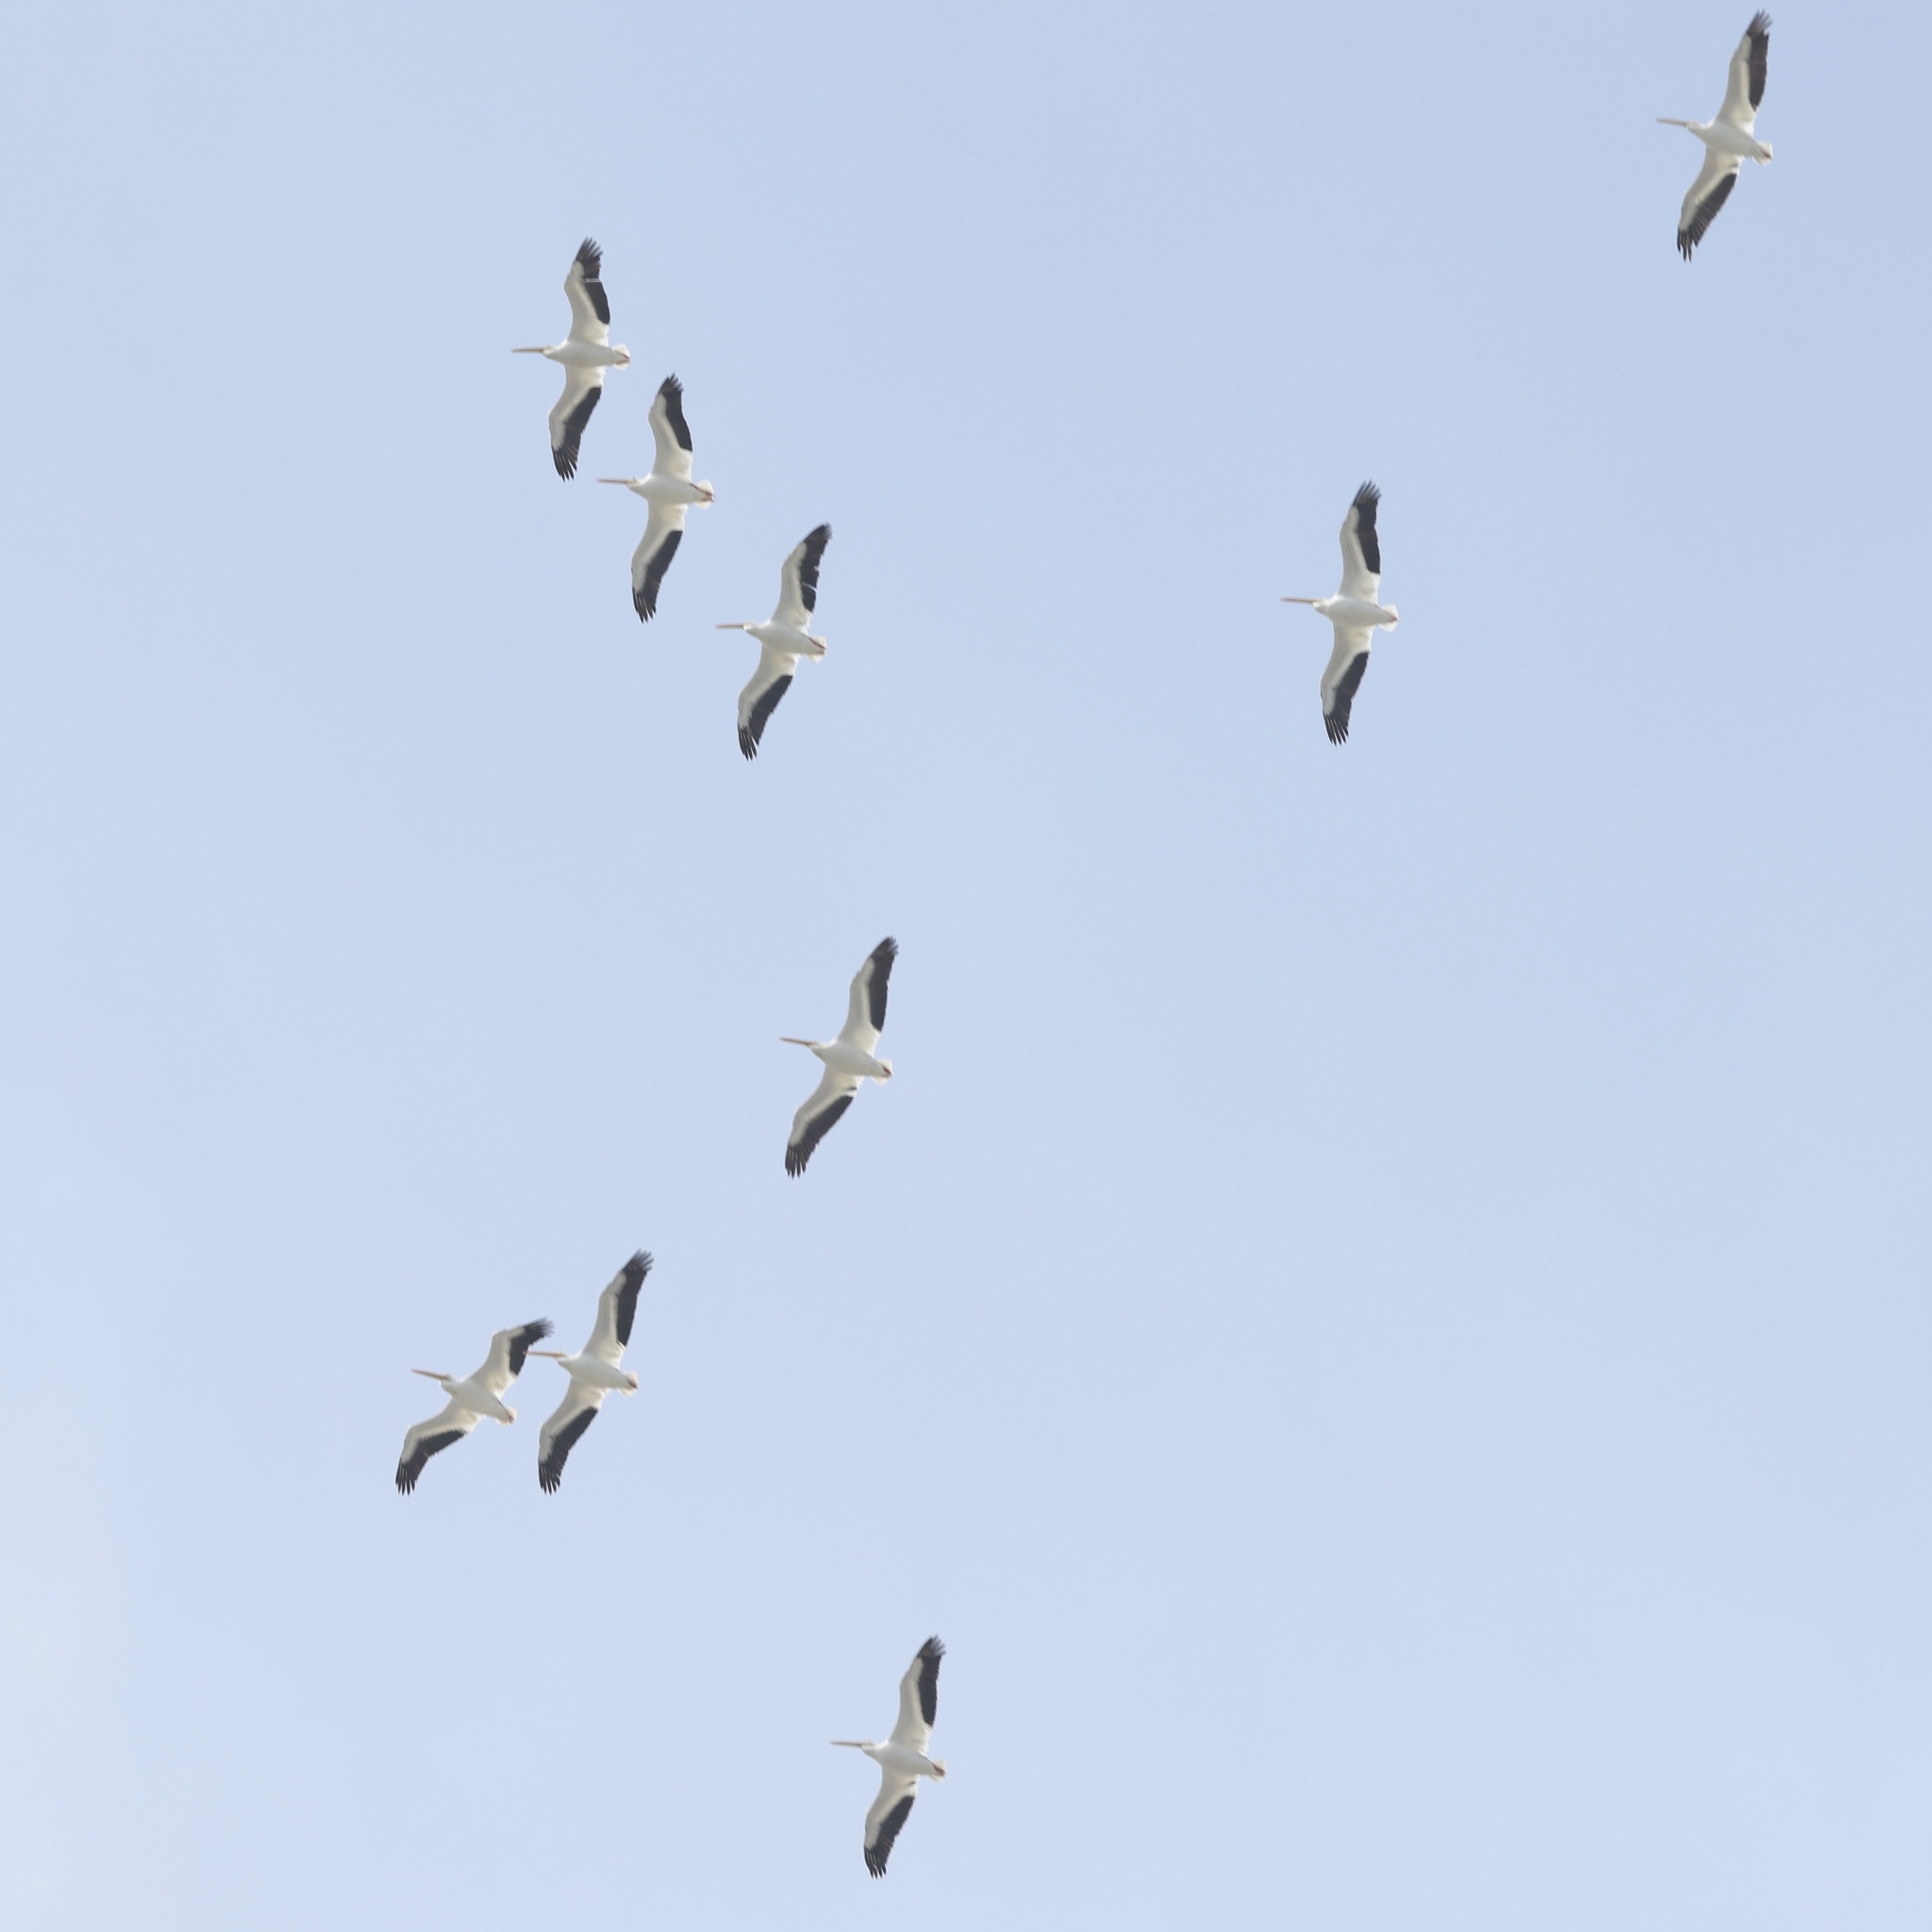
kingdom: Animalia
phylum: Chordata
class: Aves
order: Pelecaniformes
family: Pelecanidae
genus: Pelecanus
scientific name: Pelecanus erythrorhynchos
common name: American white pelican
